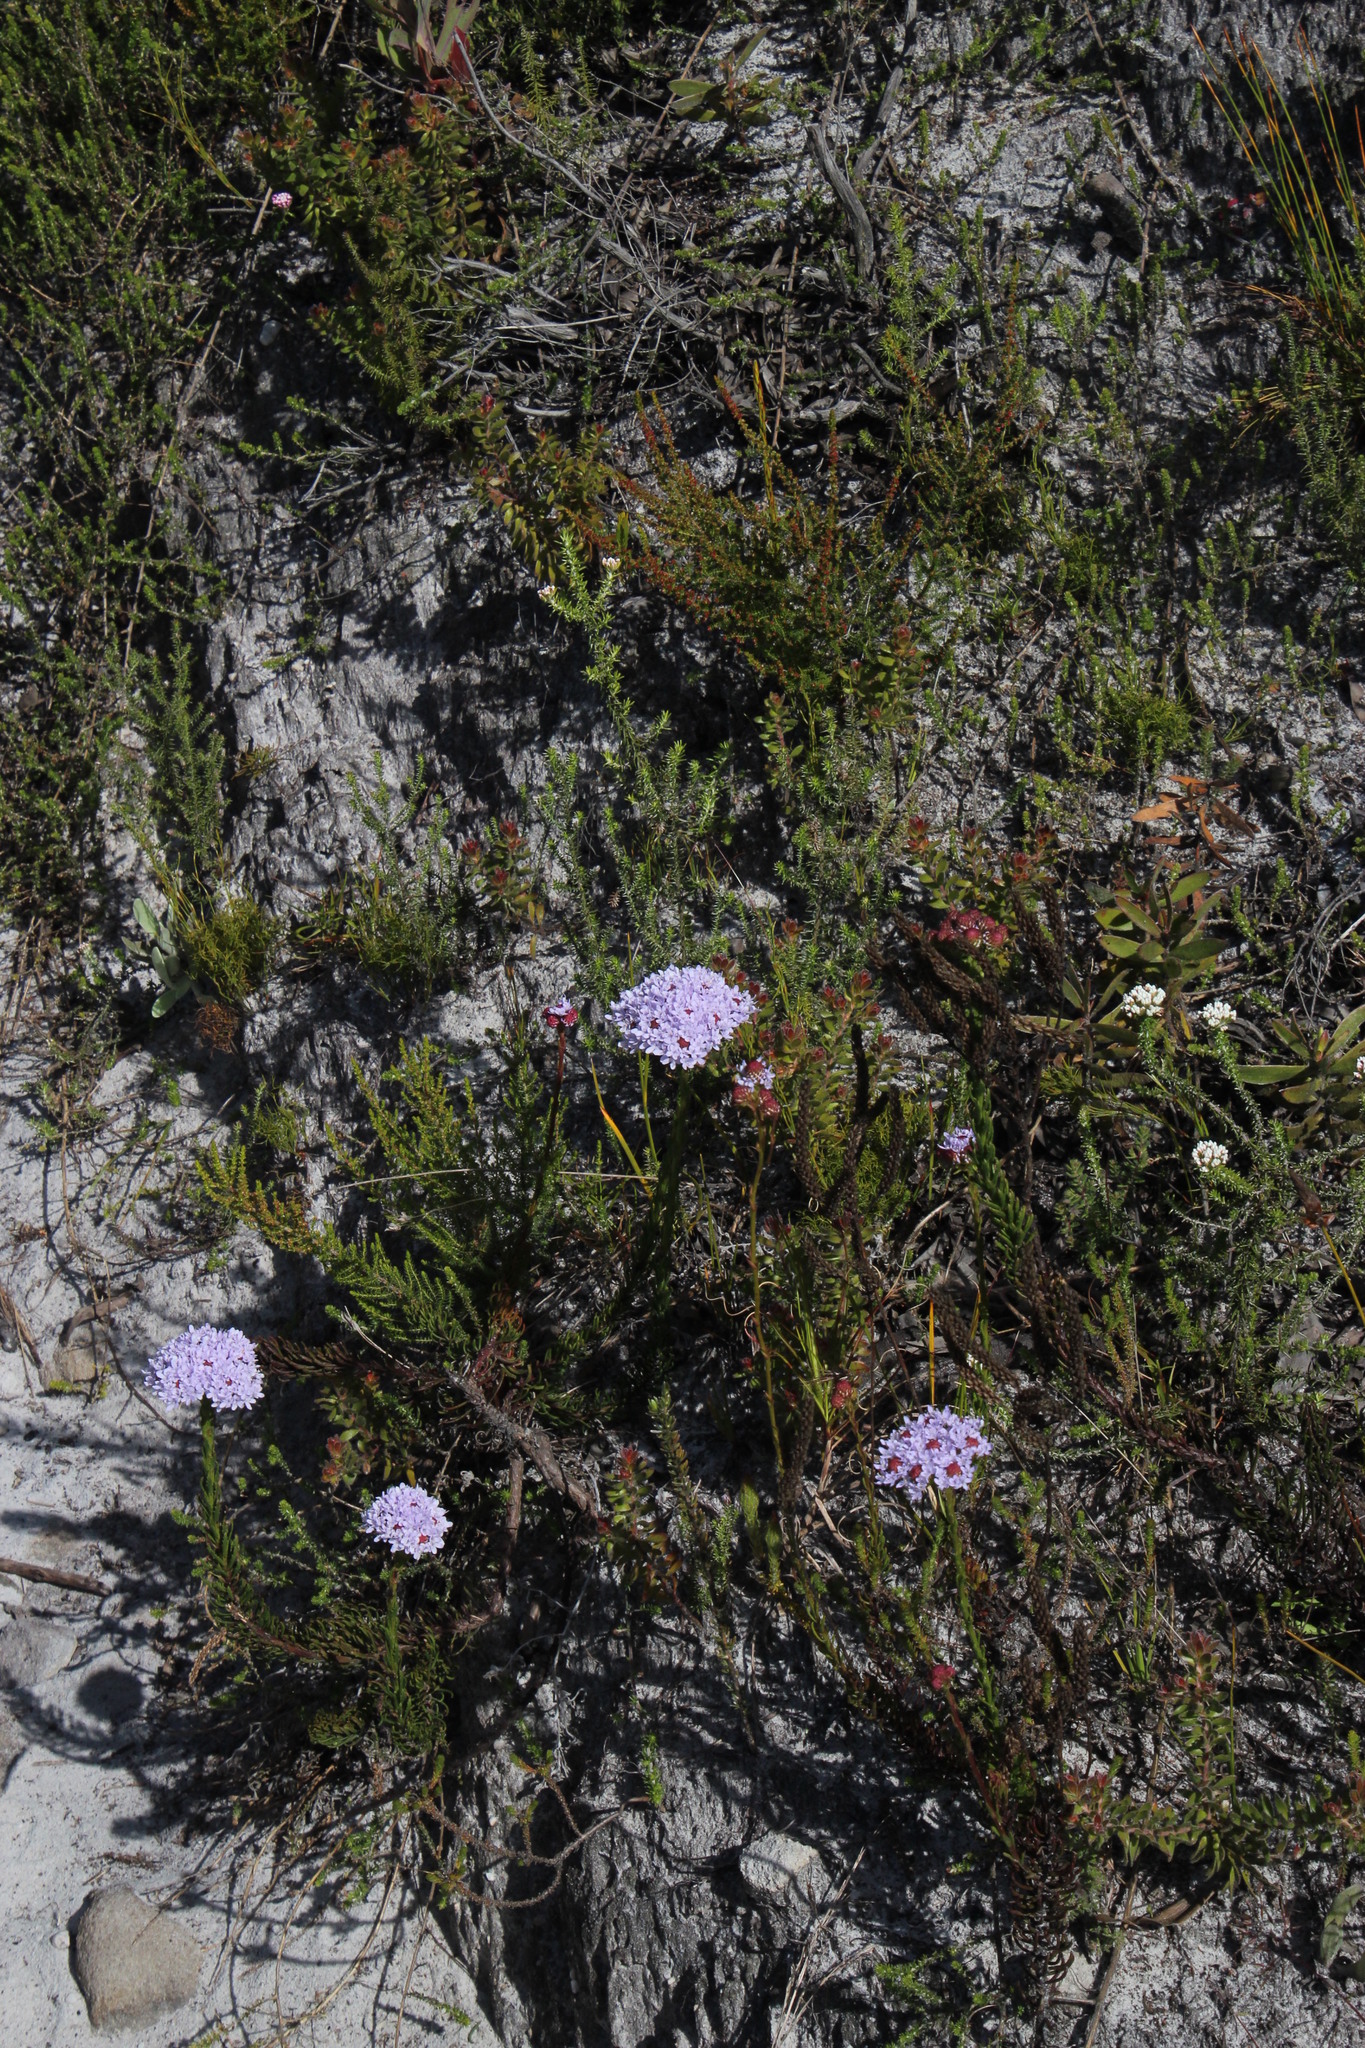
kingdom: Plantae
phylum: Tracheophyta
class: Magnoliopsida
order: Lamiales
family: Scrophulariaceae
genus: Pseudoselago
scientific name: Pseudoselago spuria
